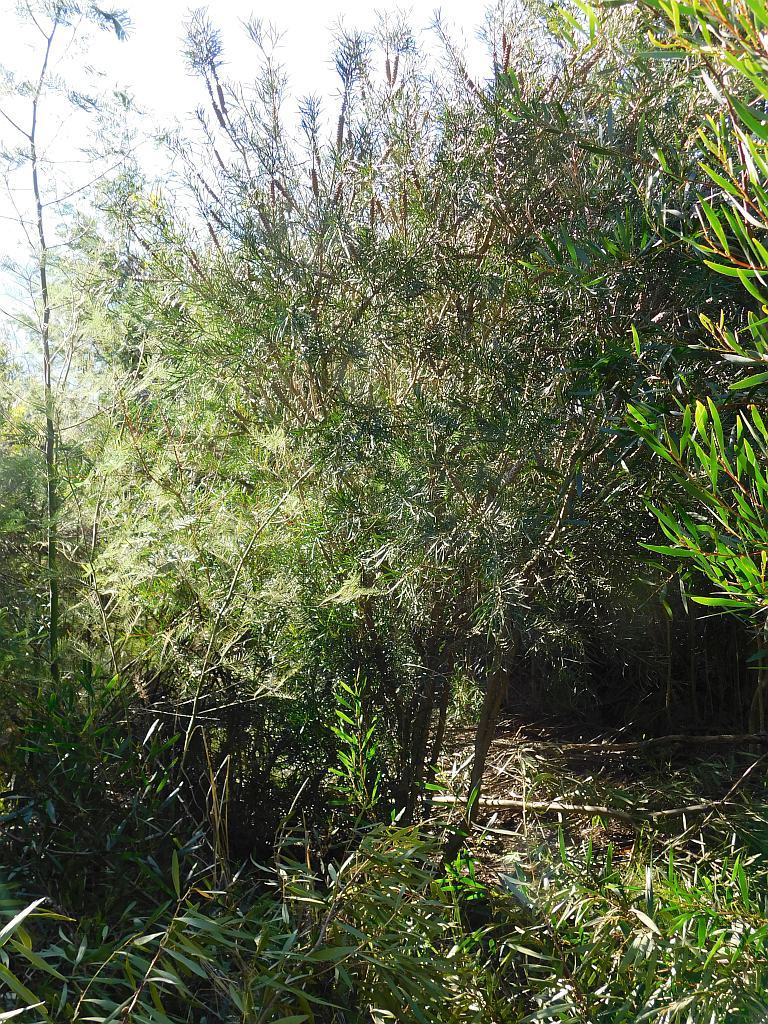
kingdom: Plantae
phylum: Tracheophyta
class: Magnoliopsida
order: Myrtales
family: Myrtaceae
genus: Callistemon
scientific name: Callistemon linearis
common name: Narrow-leaf bottlebrush
